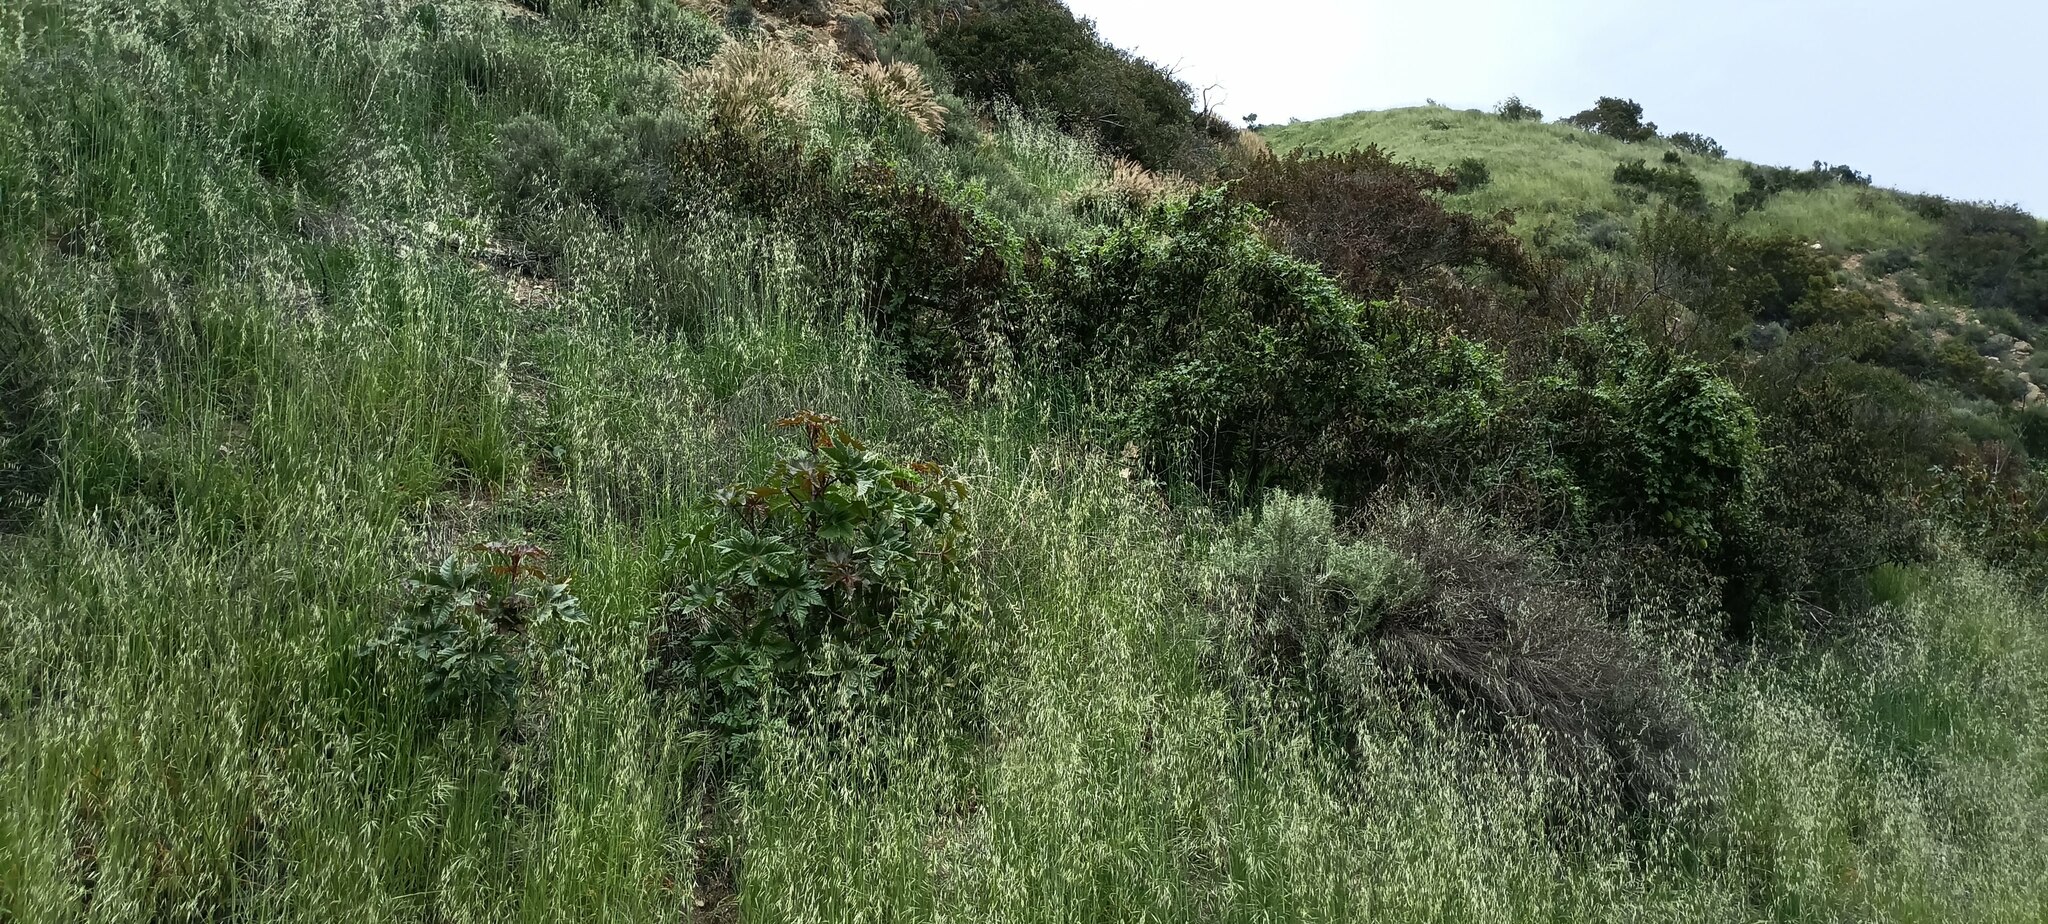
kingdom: Plantae
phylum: Tracheophyta
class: Magnoliopsida
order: Malpighiales
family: Euphorbiaceae
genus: Ricinus
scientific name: Ricinus communis
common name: Castor-oil-plant
